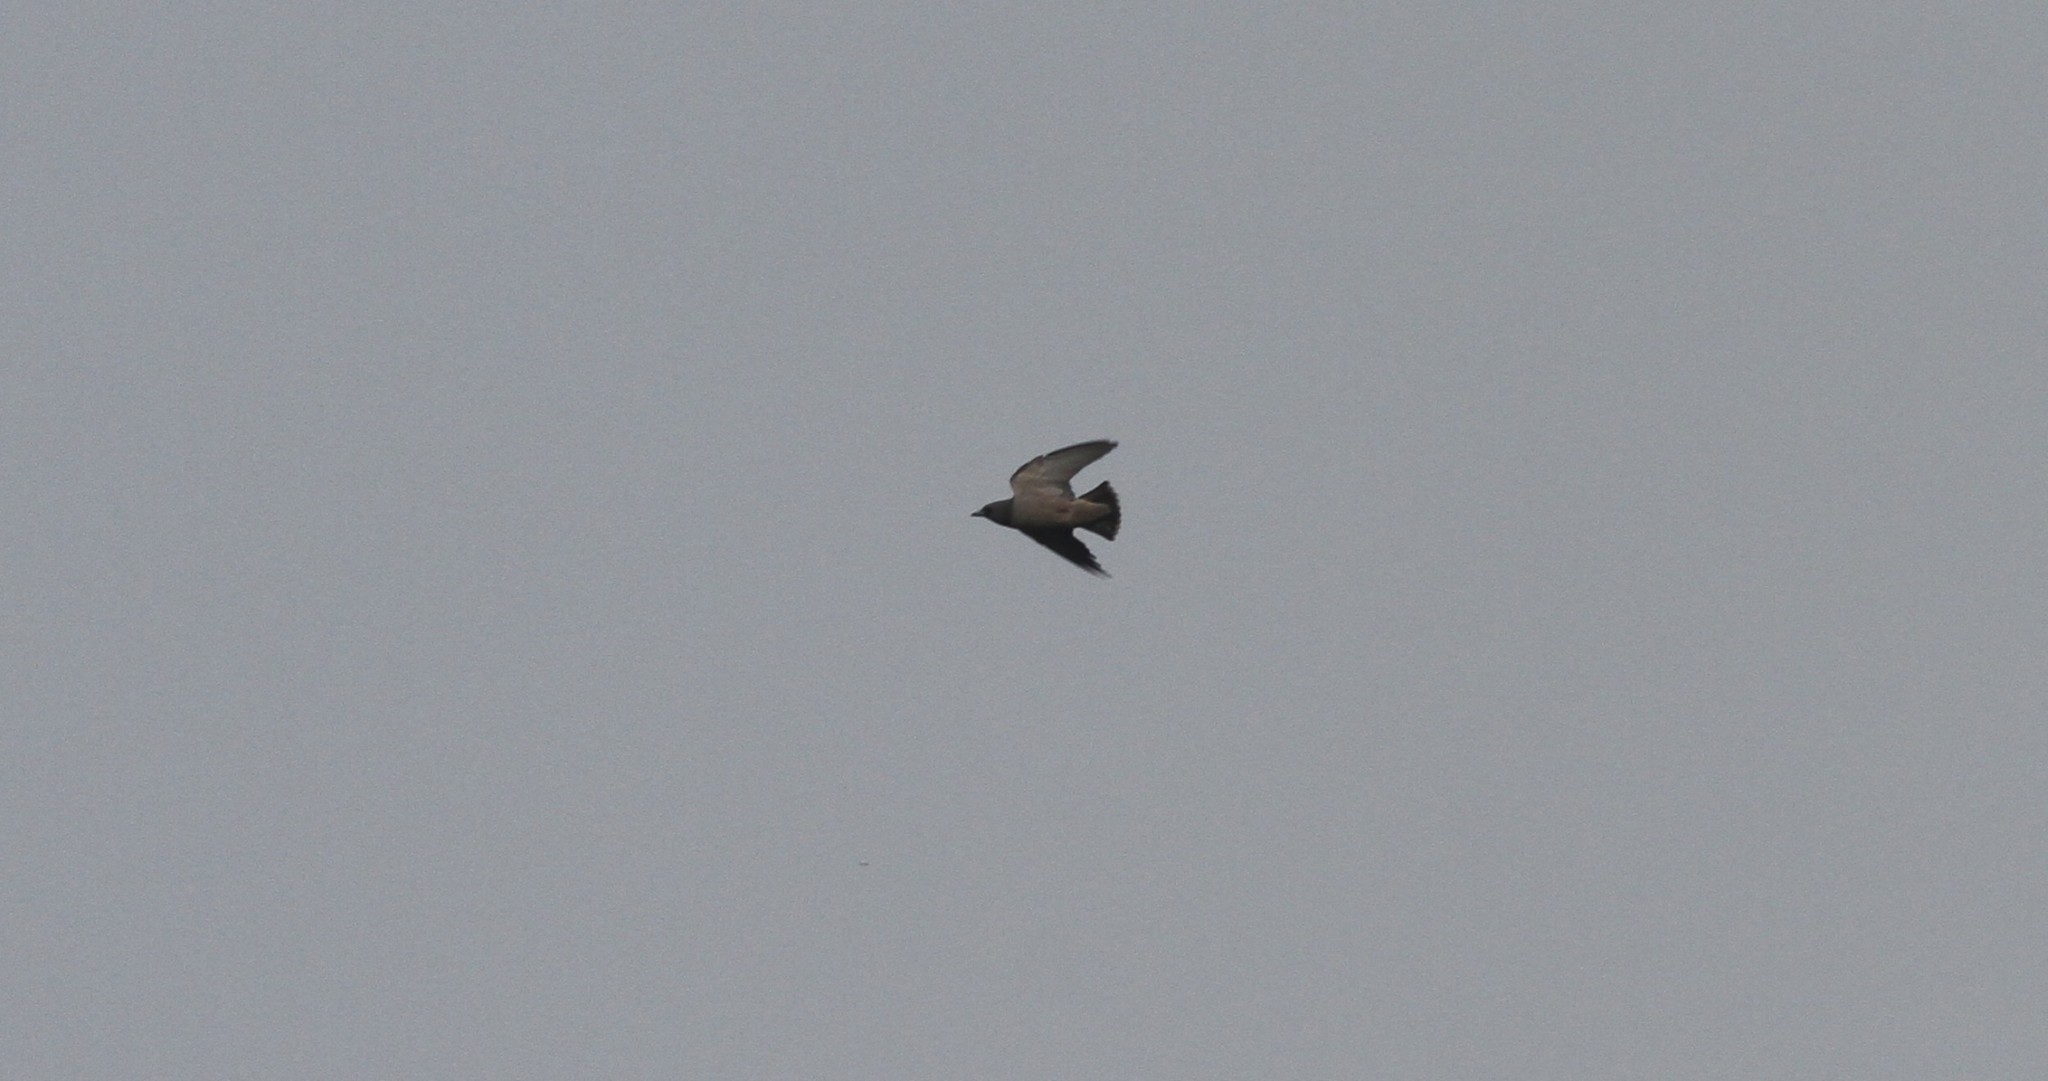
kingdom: Animalia
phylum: Chordata
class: Aves
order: Passeriformes
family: Artamidae
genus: Artamus
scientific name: Artamus fuscus
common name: Ashy woodswallow
